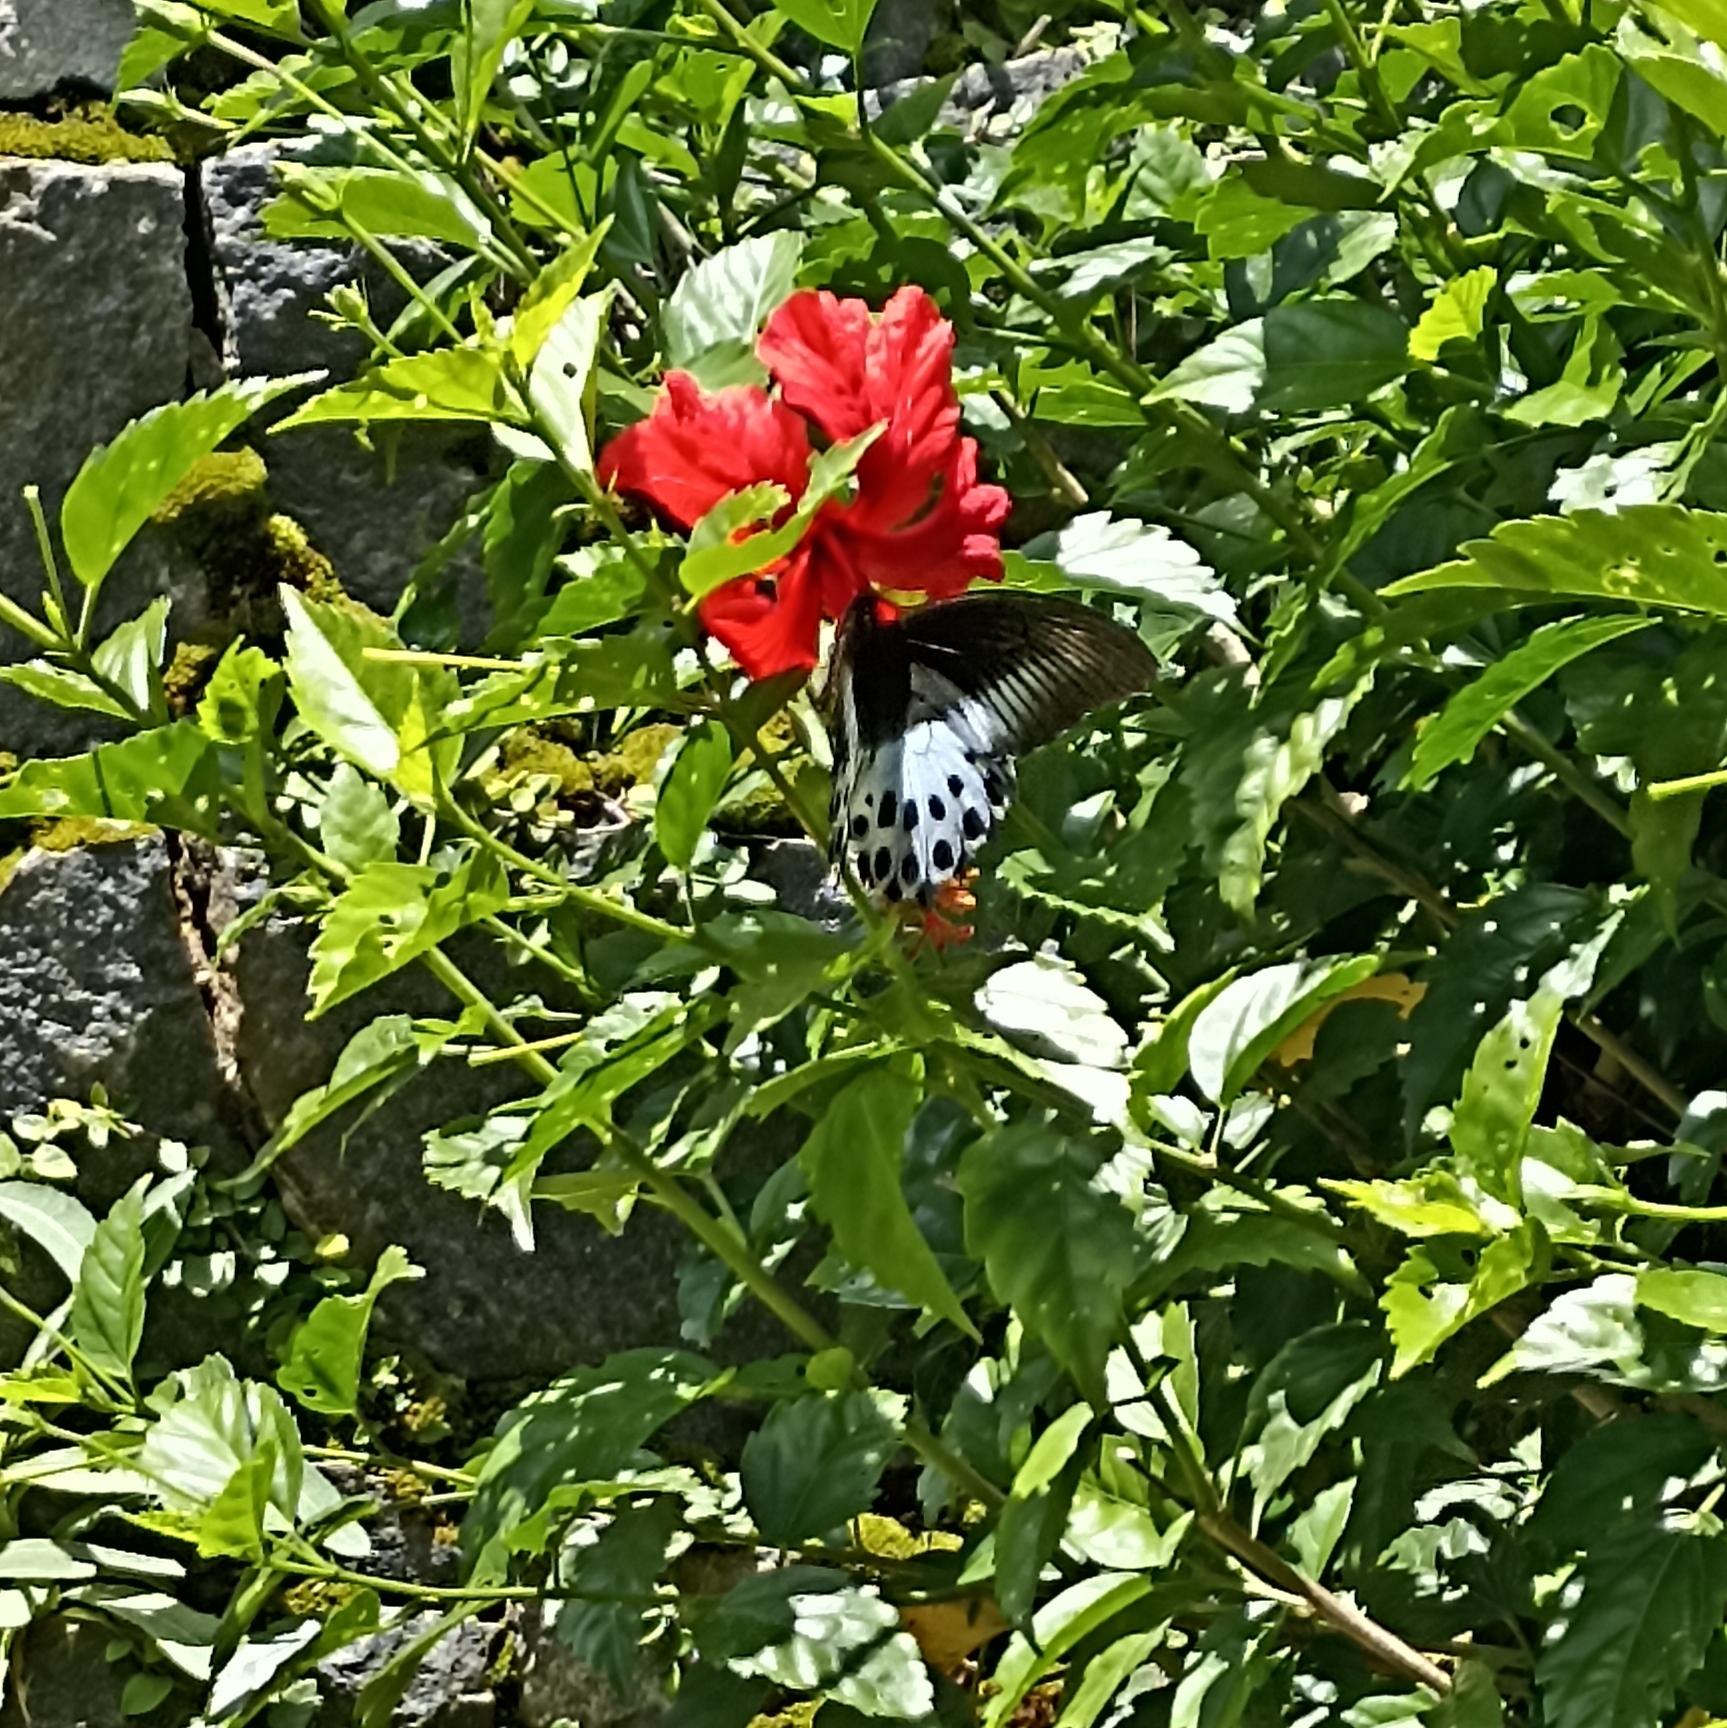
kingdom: Animalia
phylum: Arthropoda
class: Insecta
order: Lepidoptera
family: Papilionidae
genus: Papilio
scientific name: Papilio memnon
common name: Great mormon
